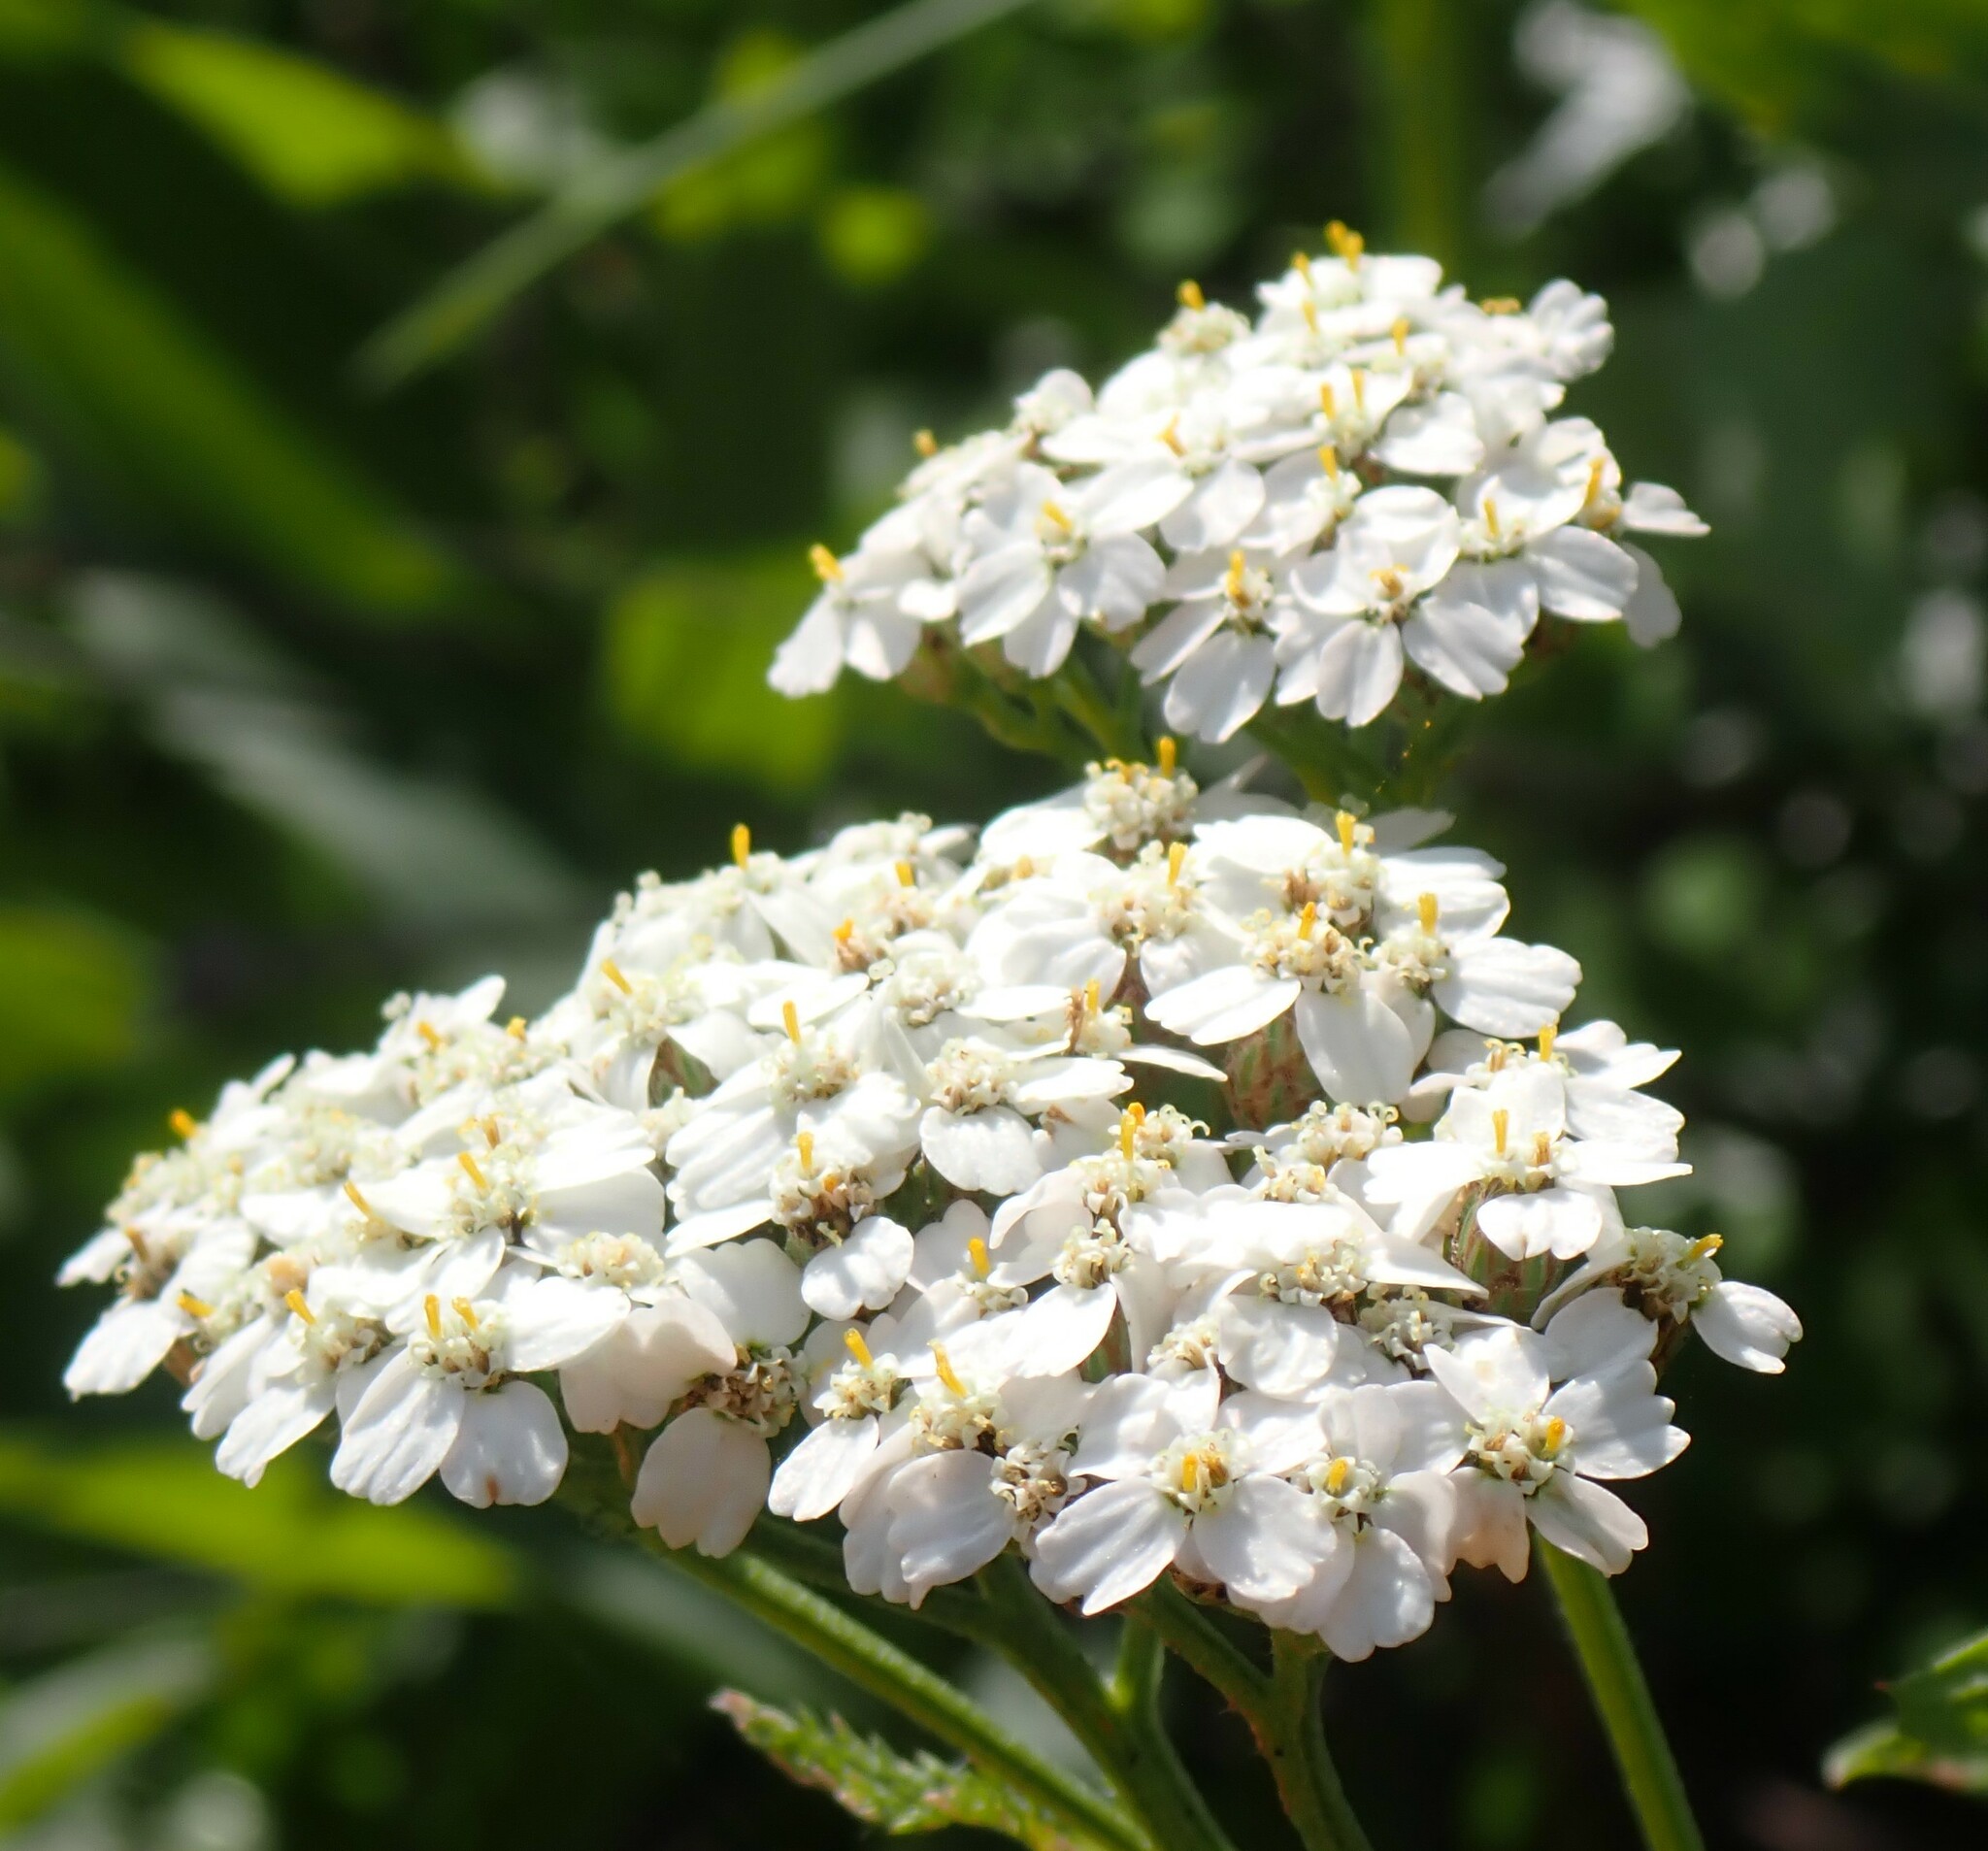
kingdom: Plantae
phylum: Tracheophyta
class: Magnoliopsida
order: Asterales
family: Asteraceae
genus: Achillea
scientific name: Achillea millefolium
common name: Yarrow
